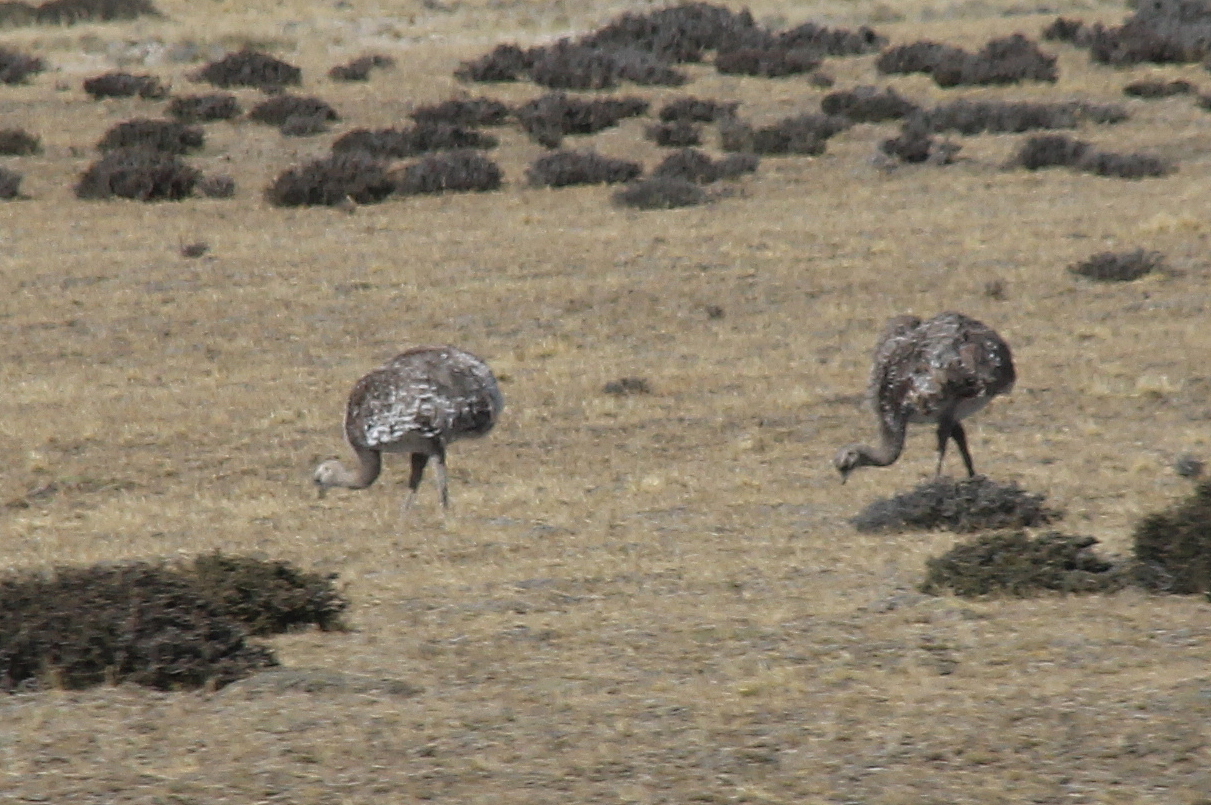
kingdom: Animalia
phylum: Chordata
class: Aves
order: Rheiformes
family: Rheidae
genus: Rhea
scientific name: Rhea pennata
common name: Lesser rhea
